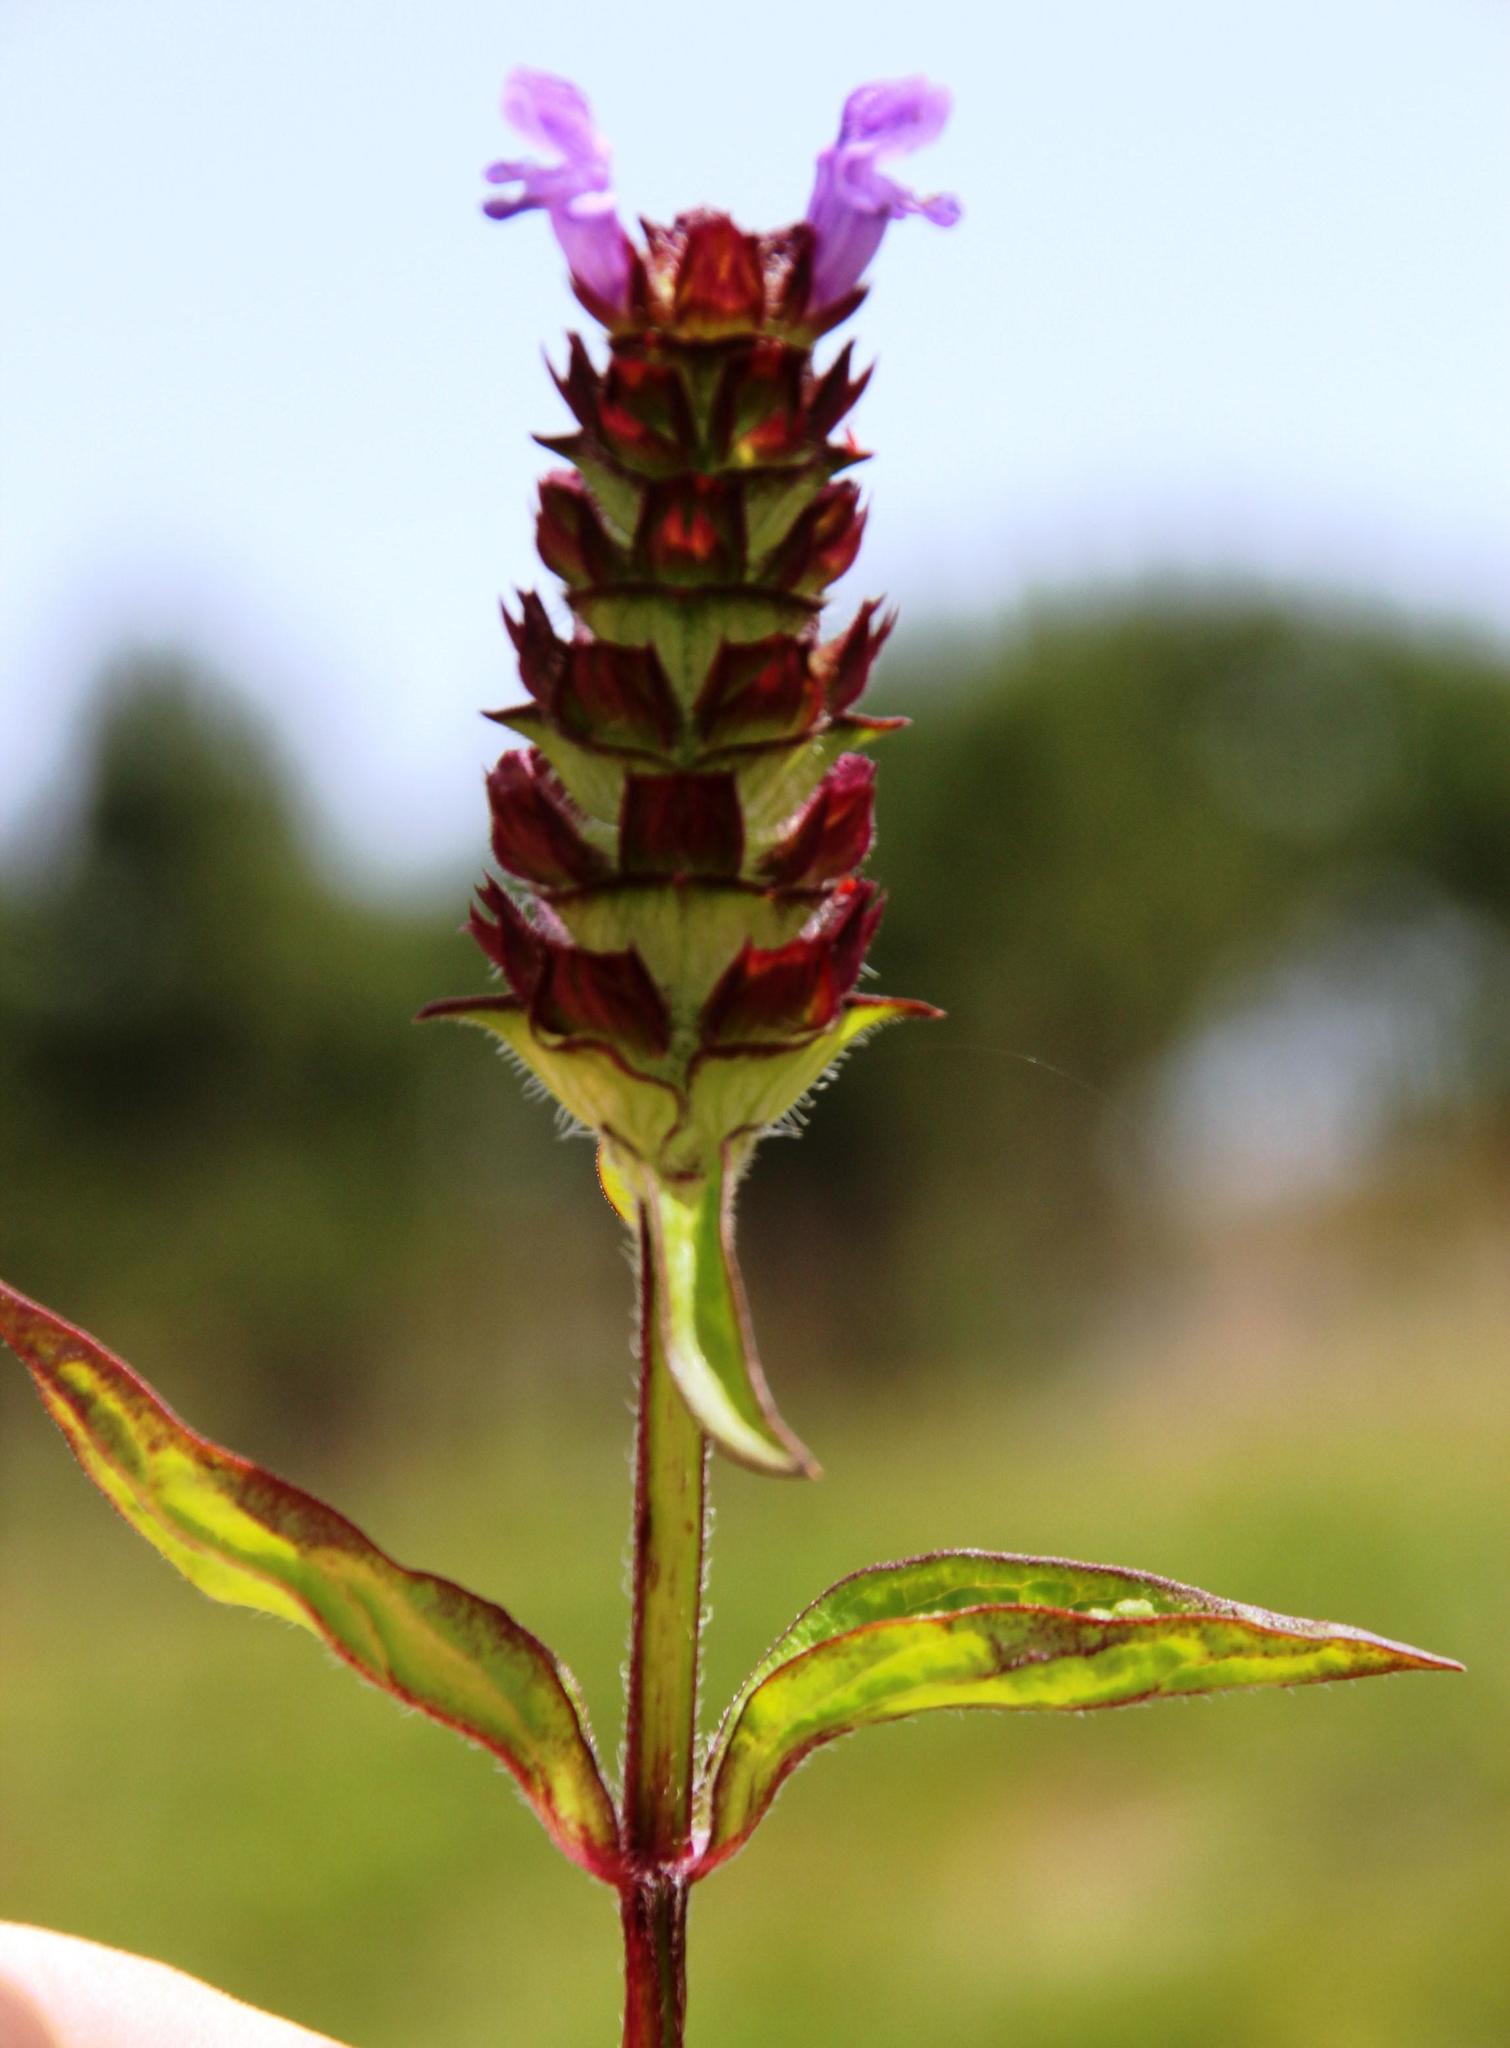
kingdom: Plantae
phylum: Tracheophyta
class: Magnoliopsida
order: Lamiales
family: Lamiaceae
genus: Prunella
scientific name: Prunella vulgaris
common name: Heal-all
